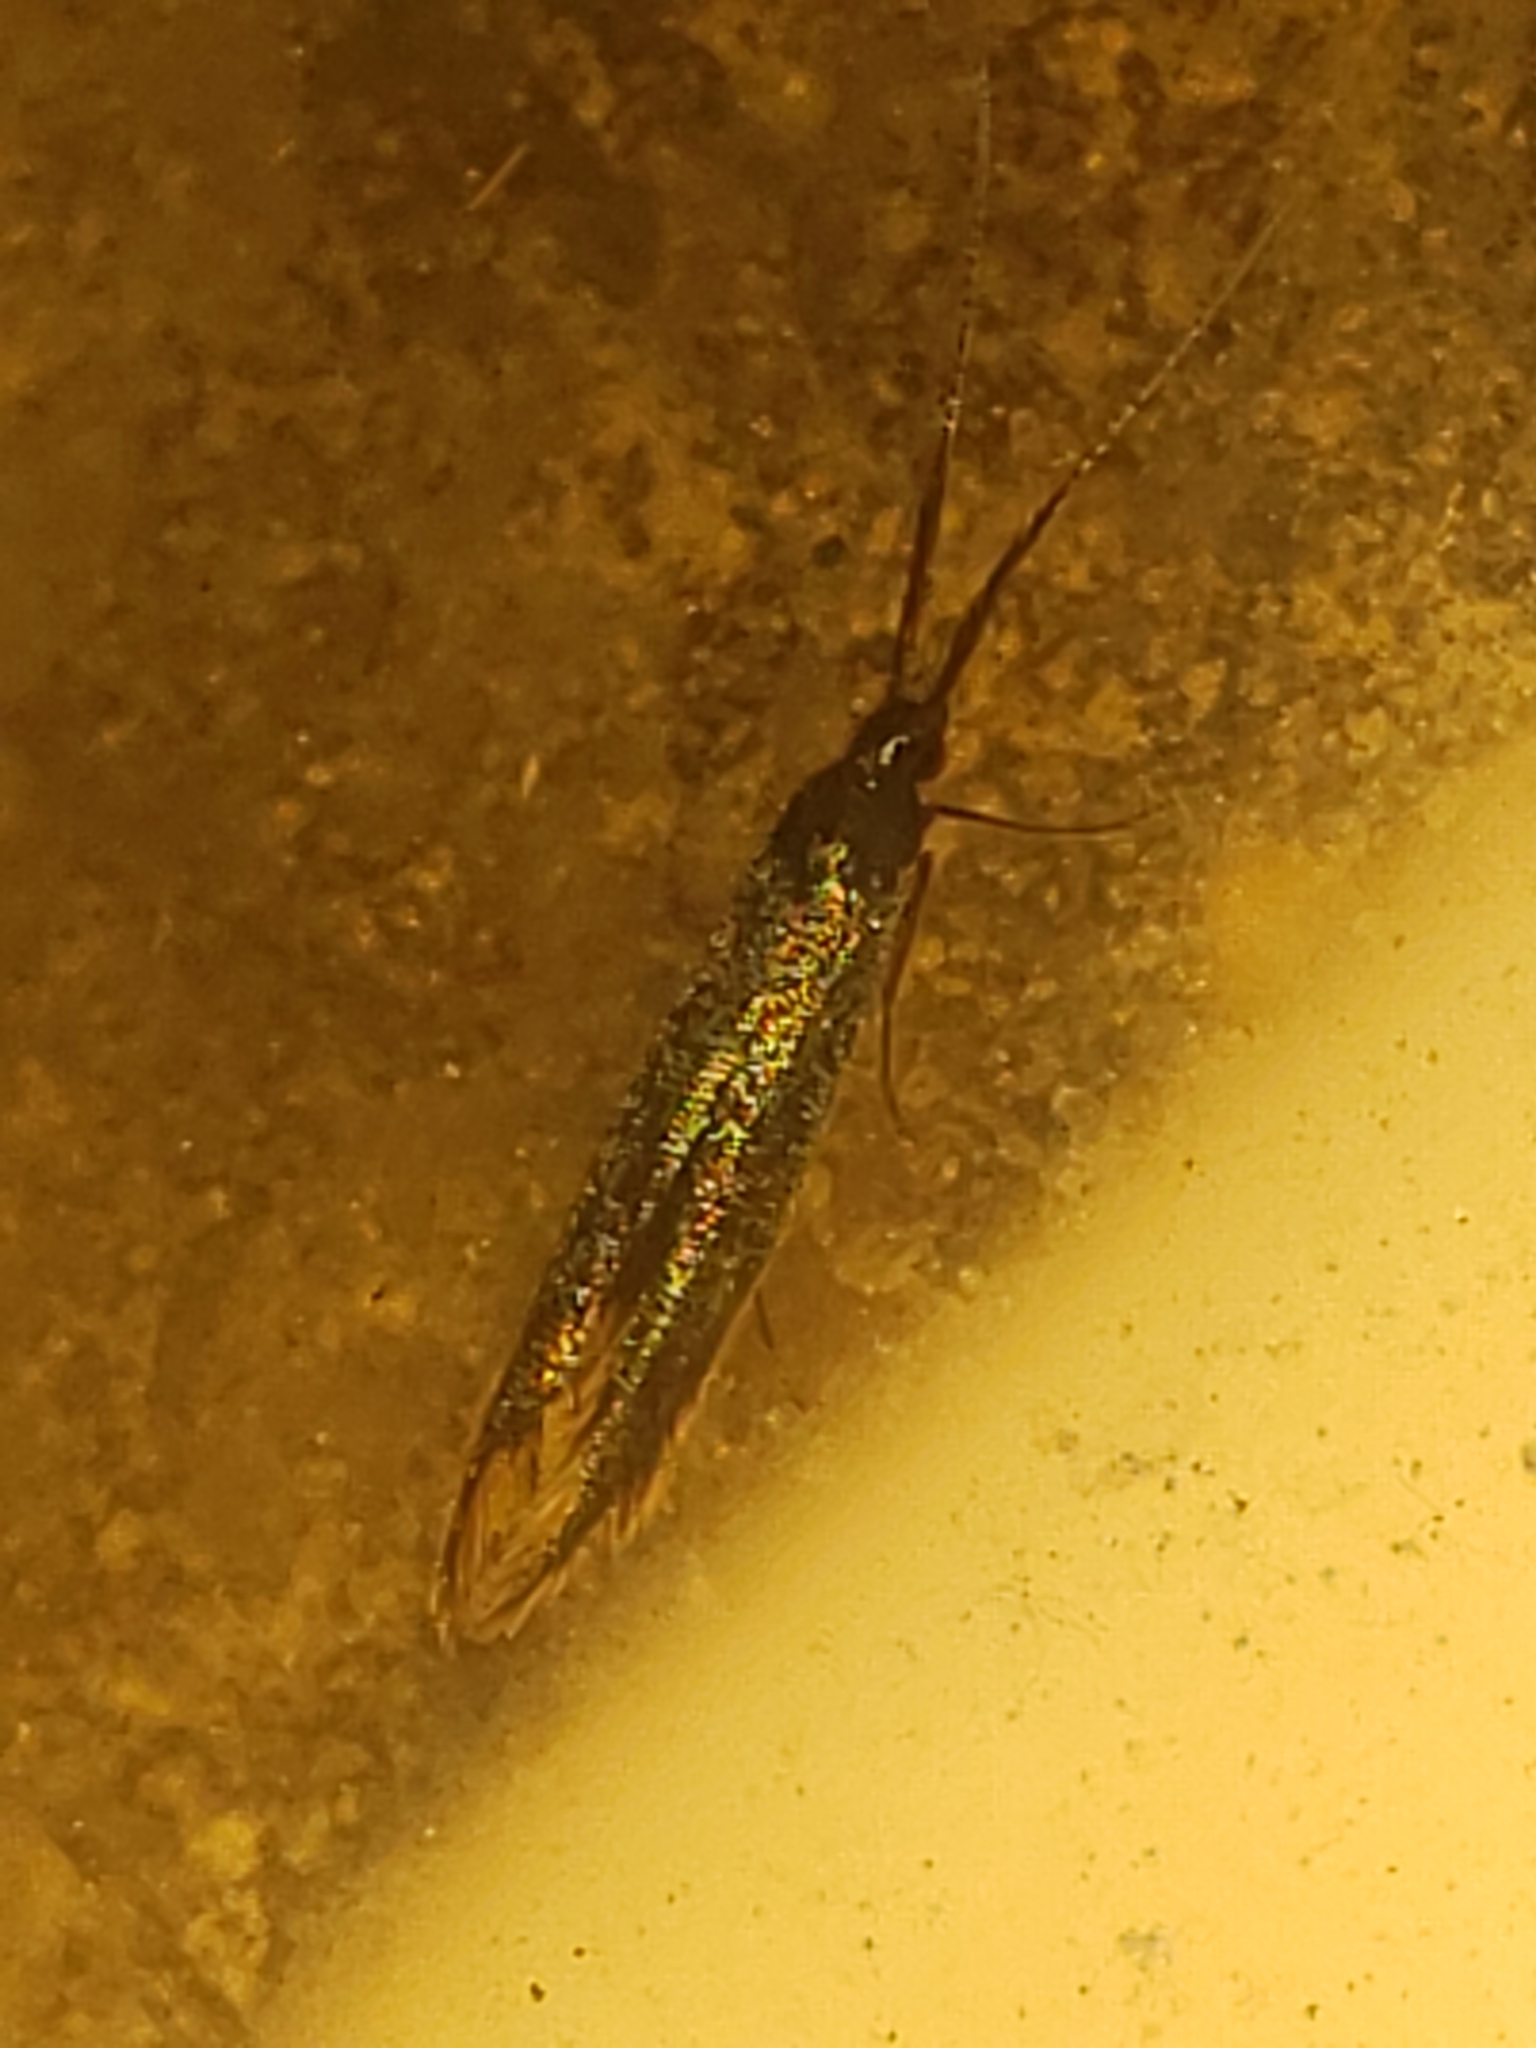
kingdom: Animalia
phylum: Arthropoda
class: Insecta
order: Lepidoptera
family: Coleophoridae
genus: Coleophora
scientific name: Coleophora mayrella
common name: Meadow case-bearer
